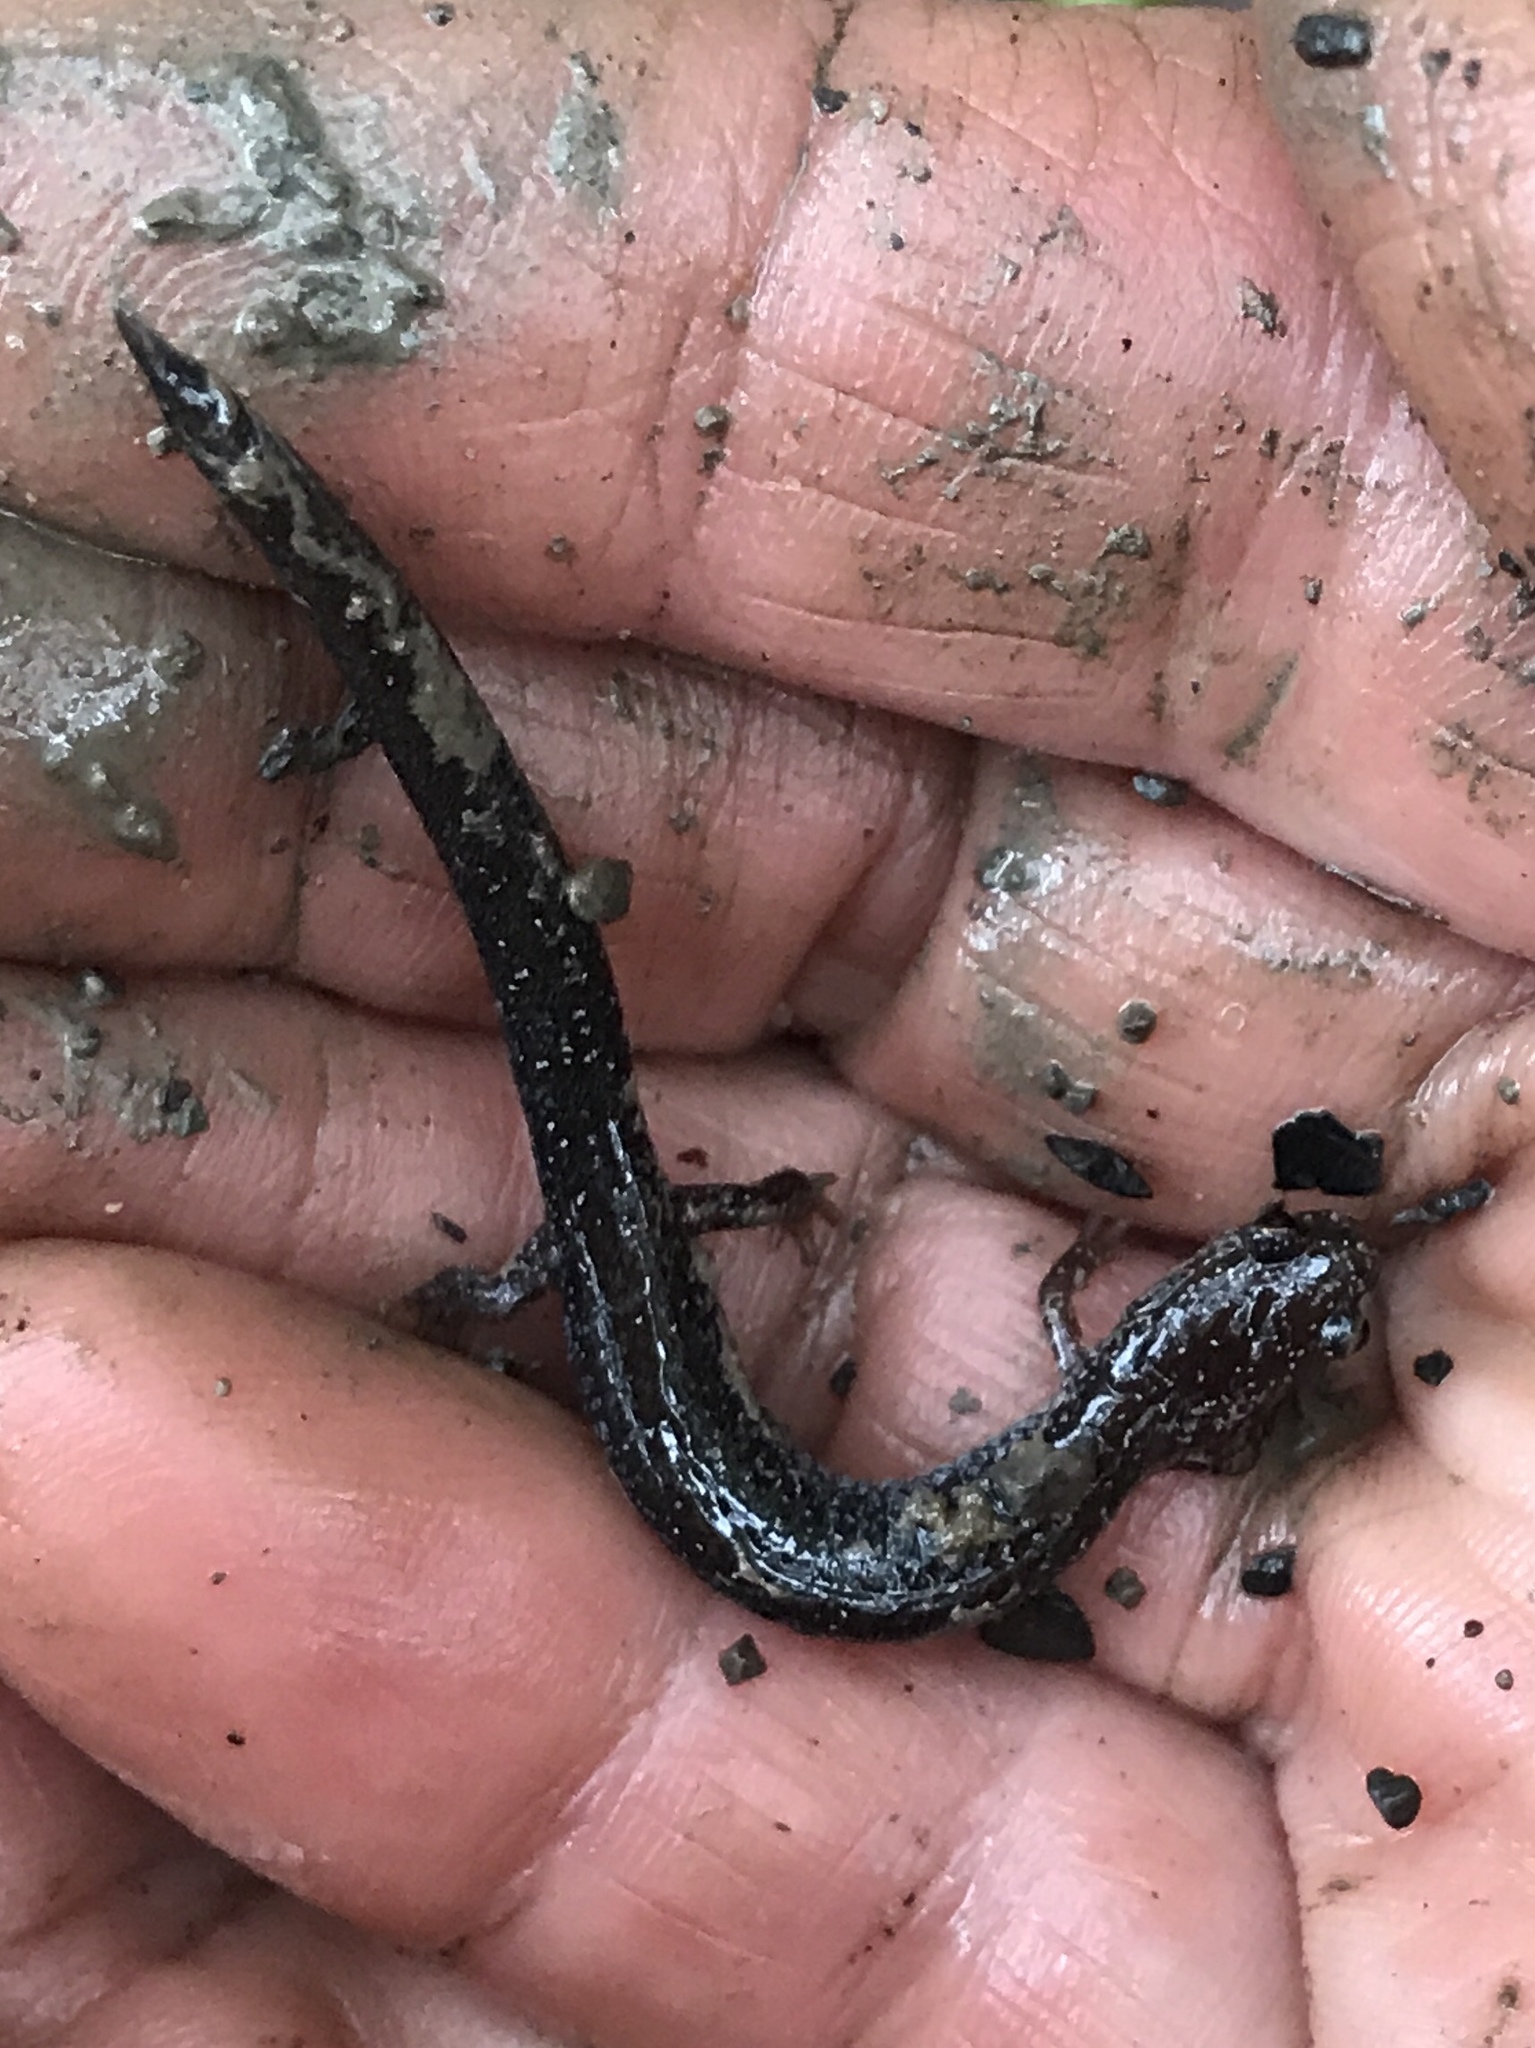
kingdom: Animalia
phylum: Chordata
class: Amphibia
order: Caudata
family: Plethodontidae
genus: Plethodon
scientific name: Plethodon cinereus
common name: Redback salamander
